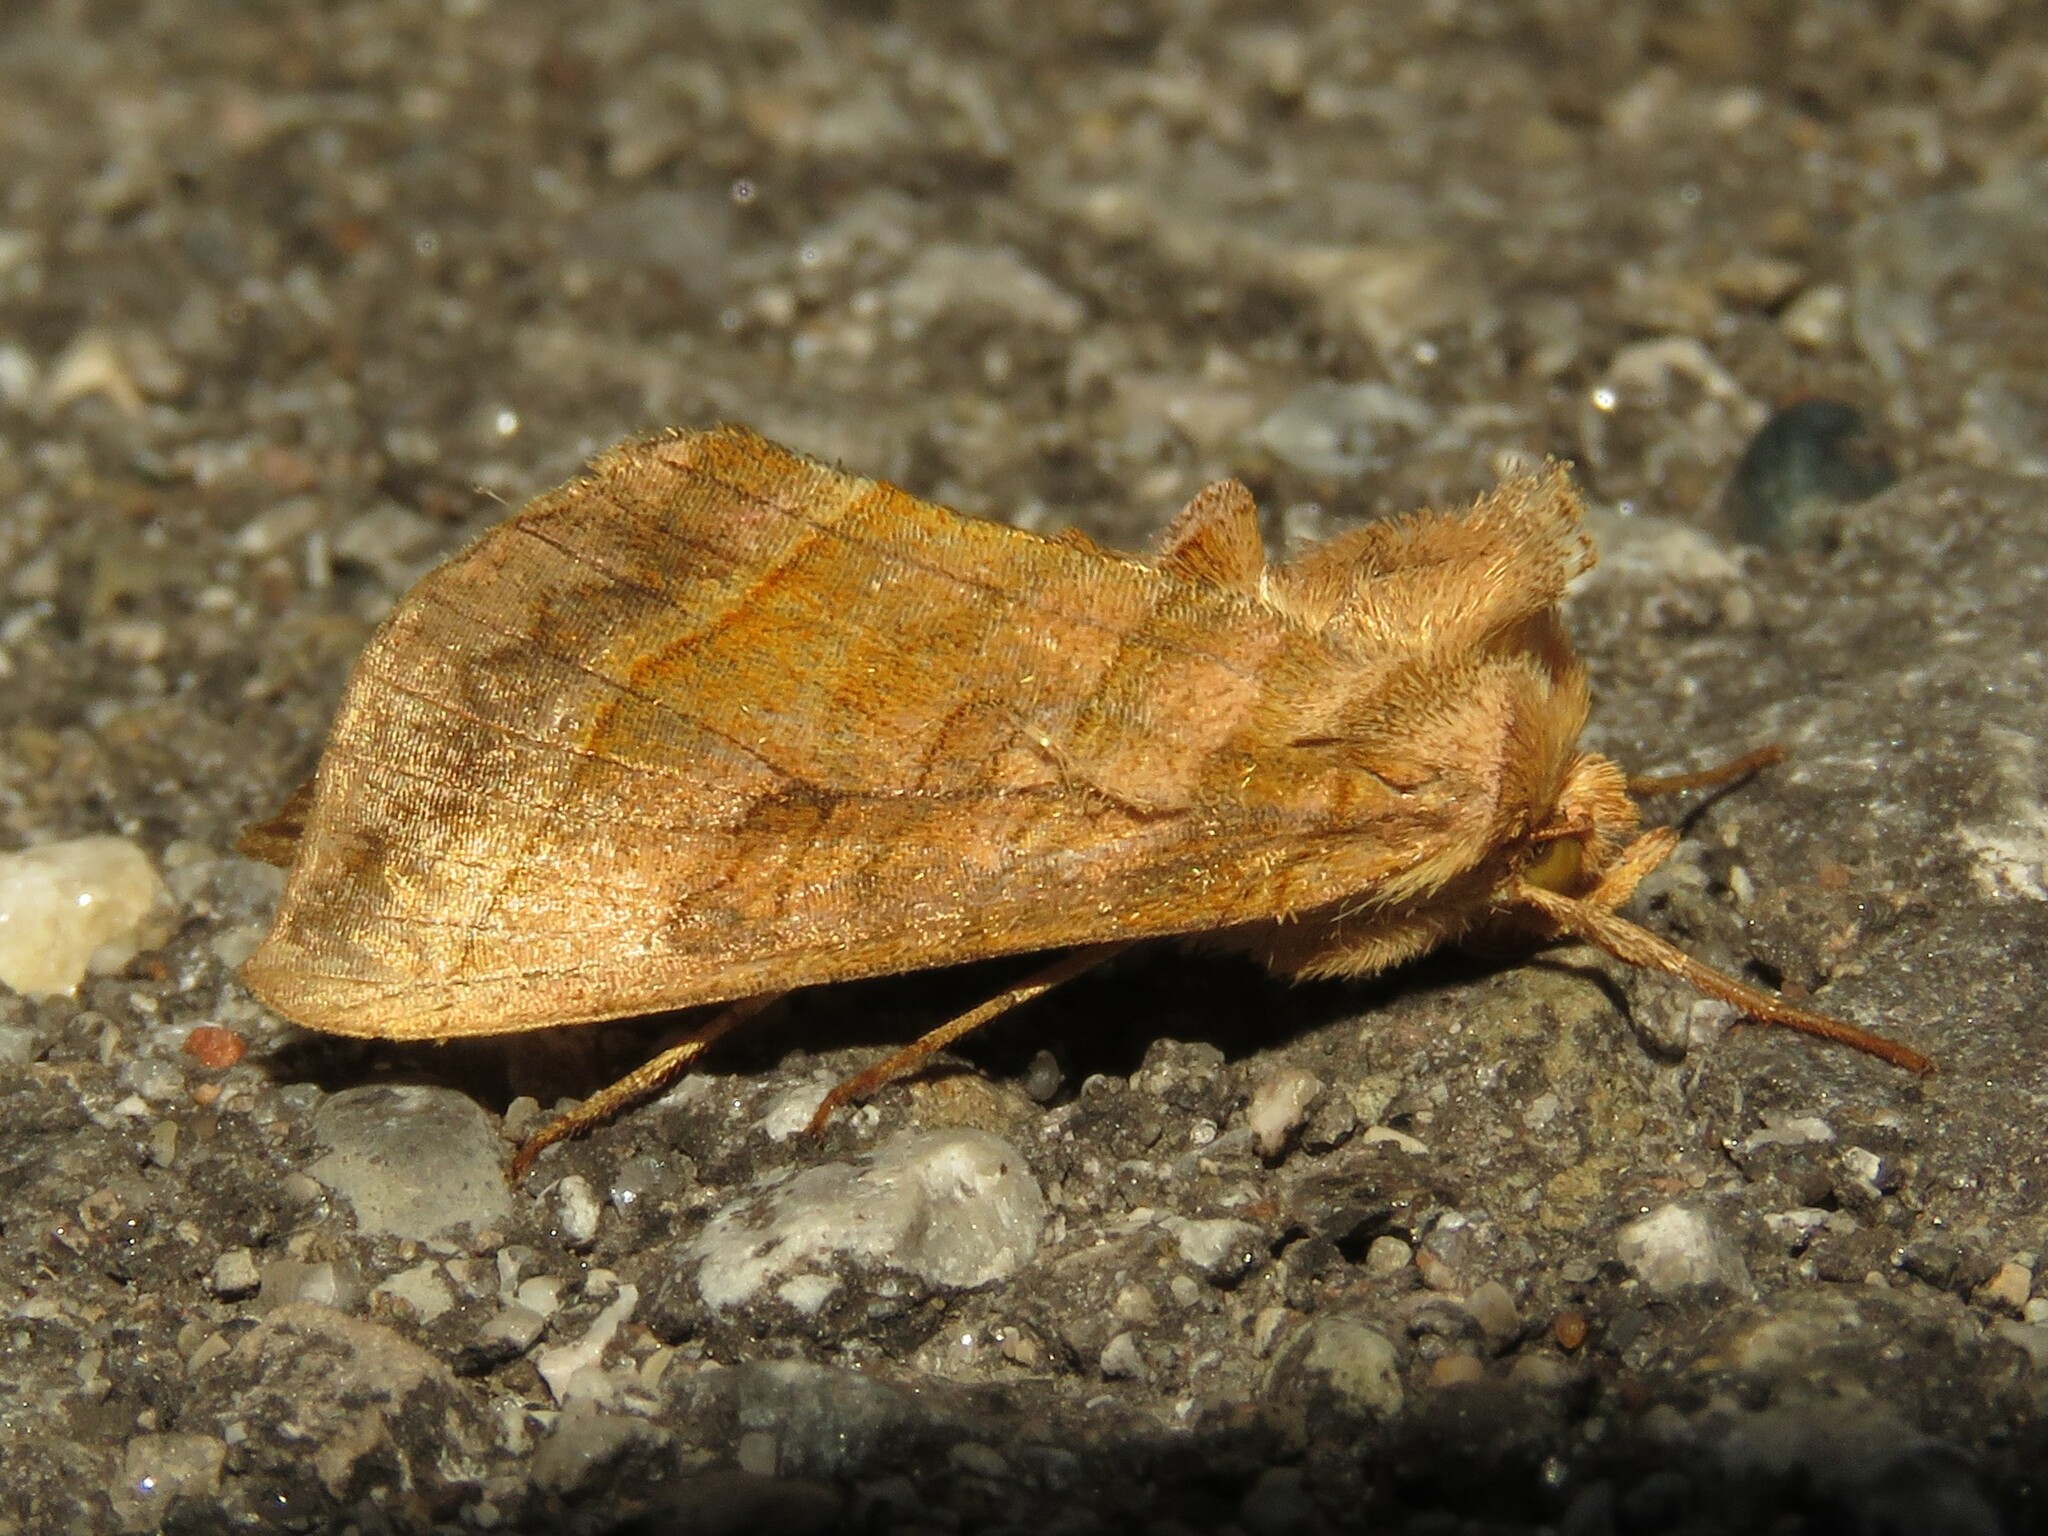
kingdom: Animalia
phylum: Arthropoda
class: Insecta
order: Lepidoptera
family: Noctuidae
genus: Diachrysia
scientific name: Diachrysia aereoides
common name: Dark-spotted looper moth
